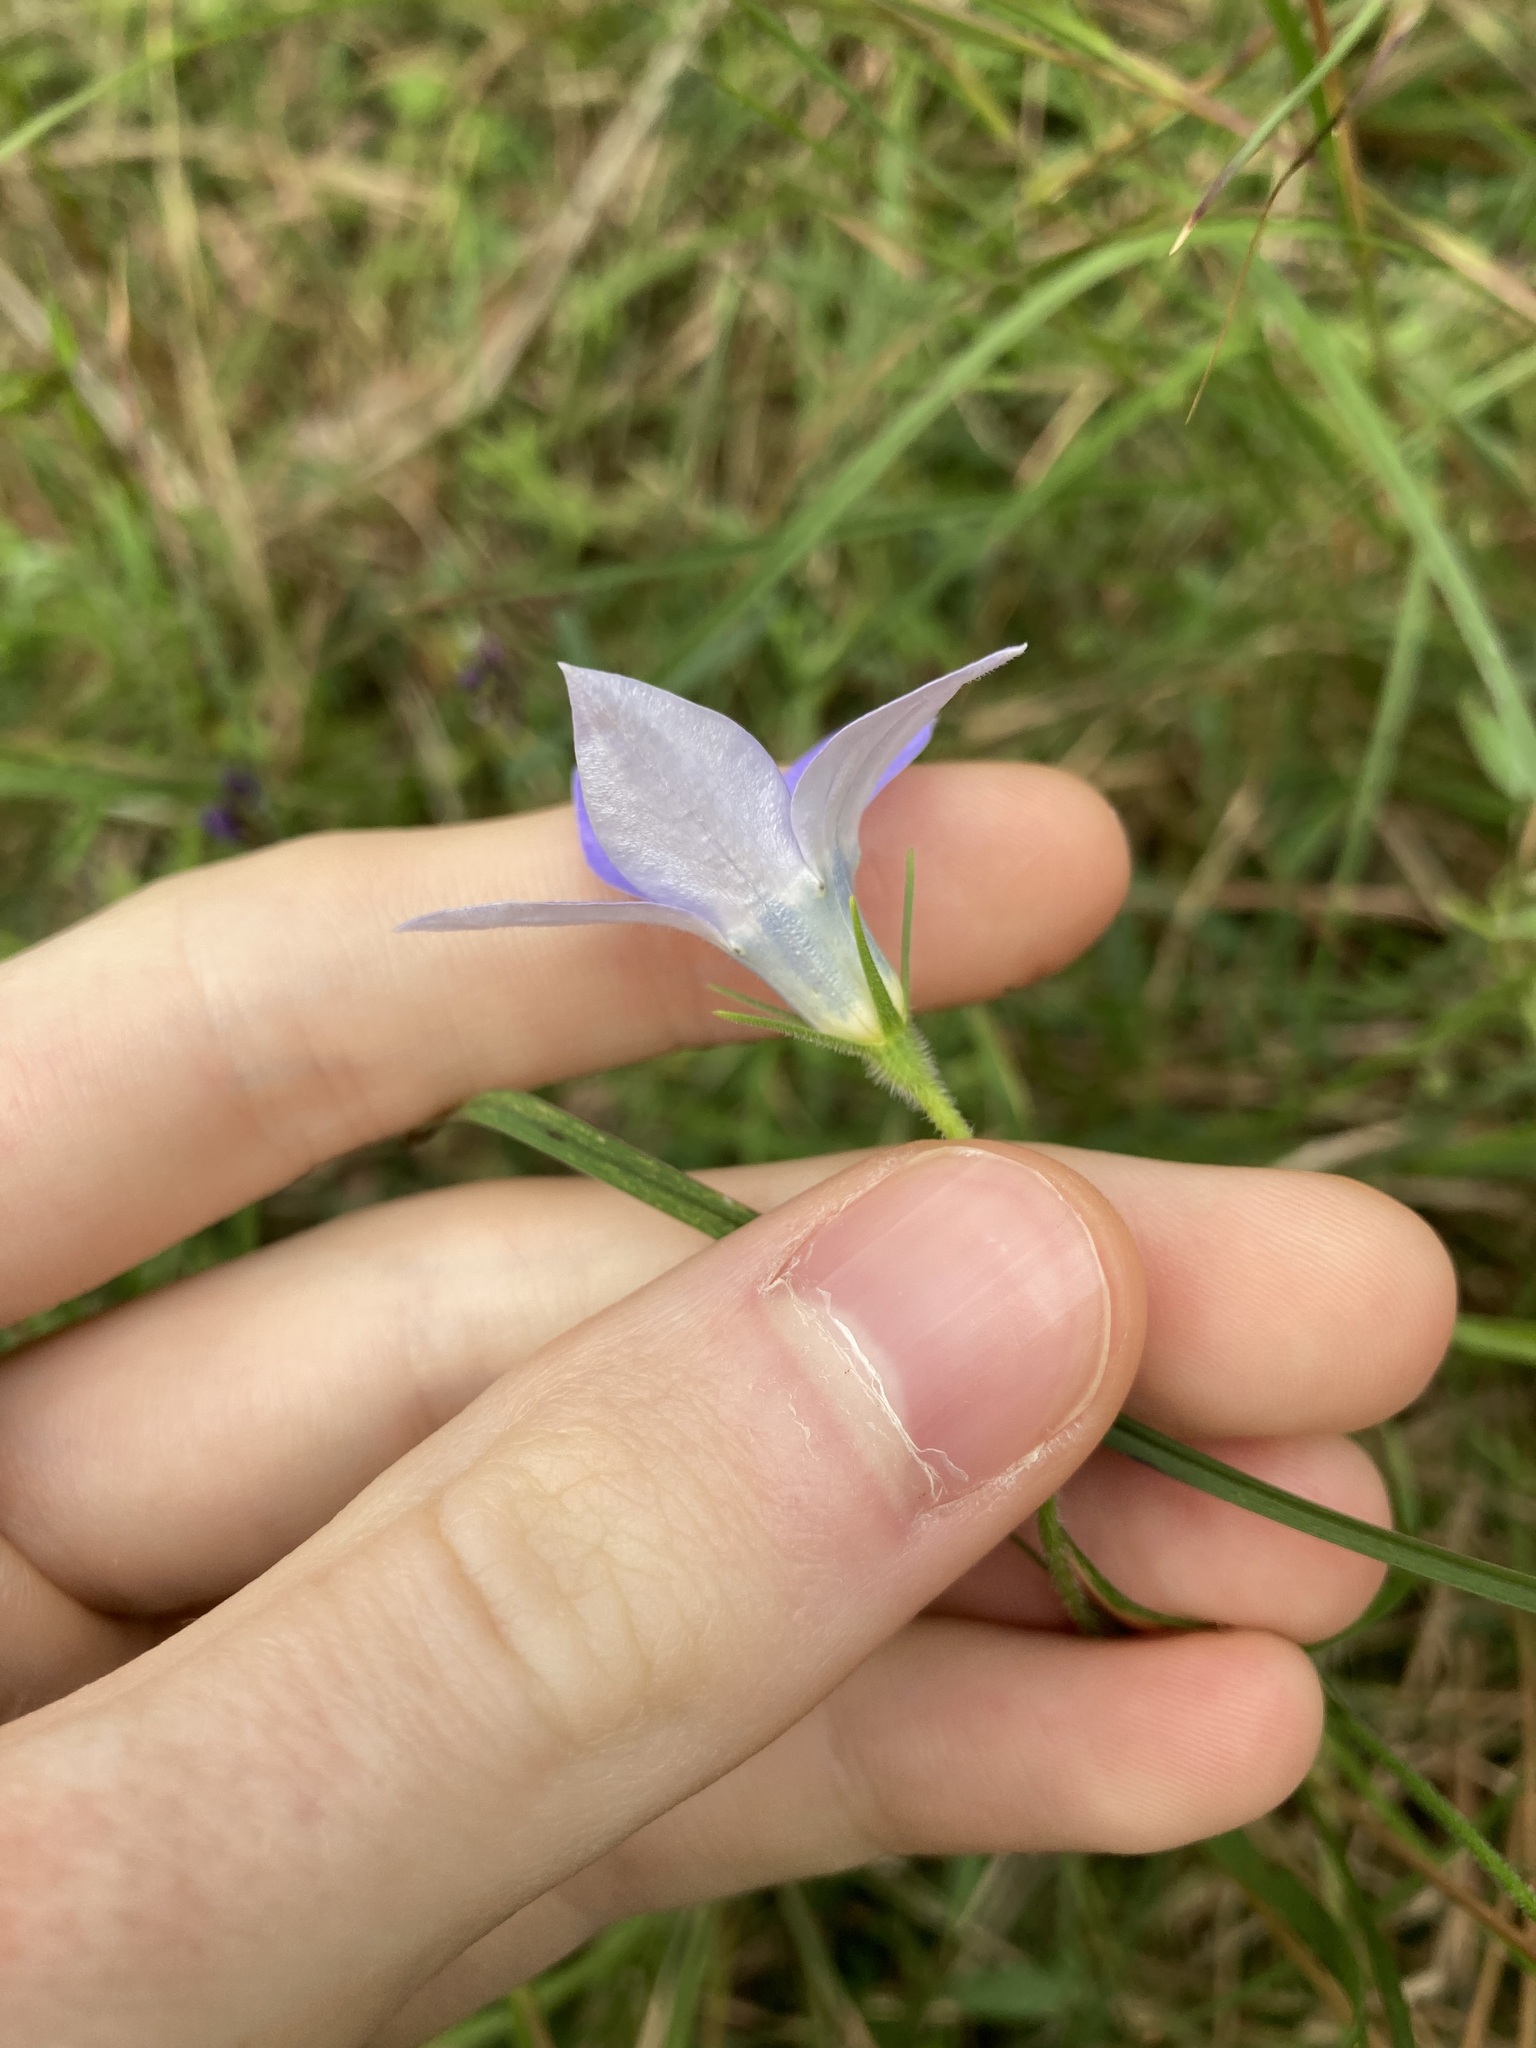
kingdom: Plantae
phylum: Tracheophyta
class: Magnoliopsida
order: Asterales
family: Campanulaceae
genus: Wahlenbergia
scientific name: Wahlenbergia stricta
